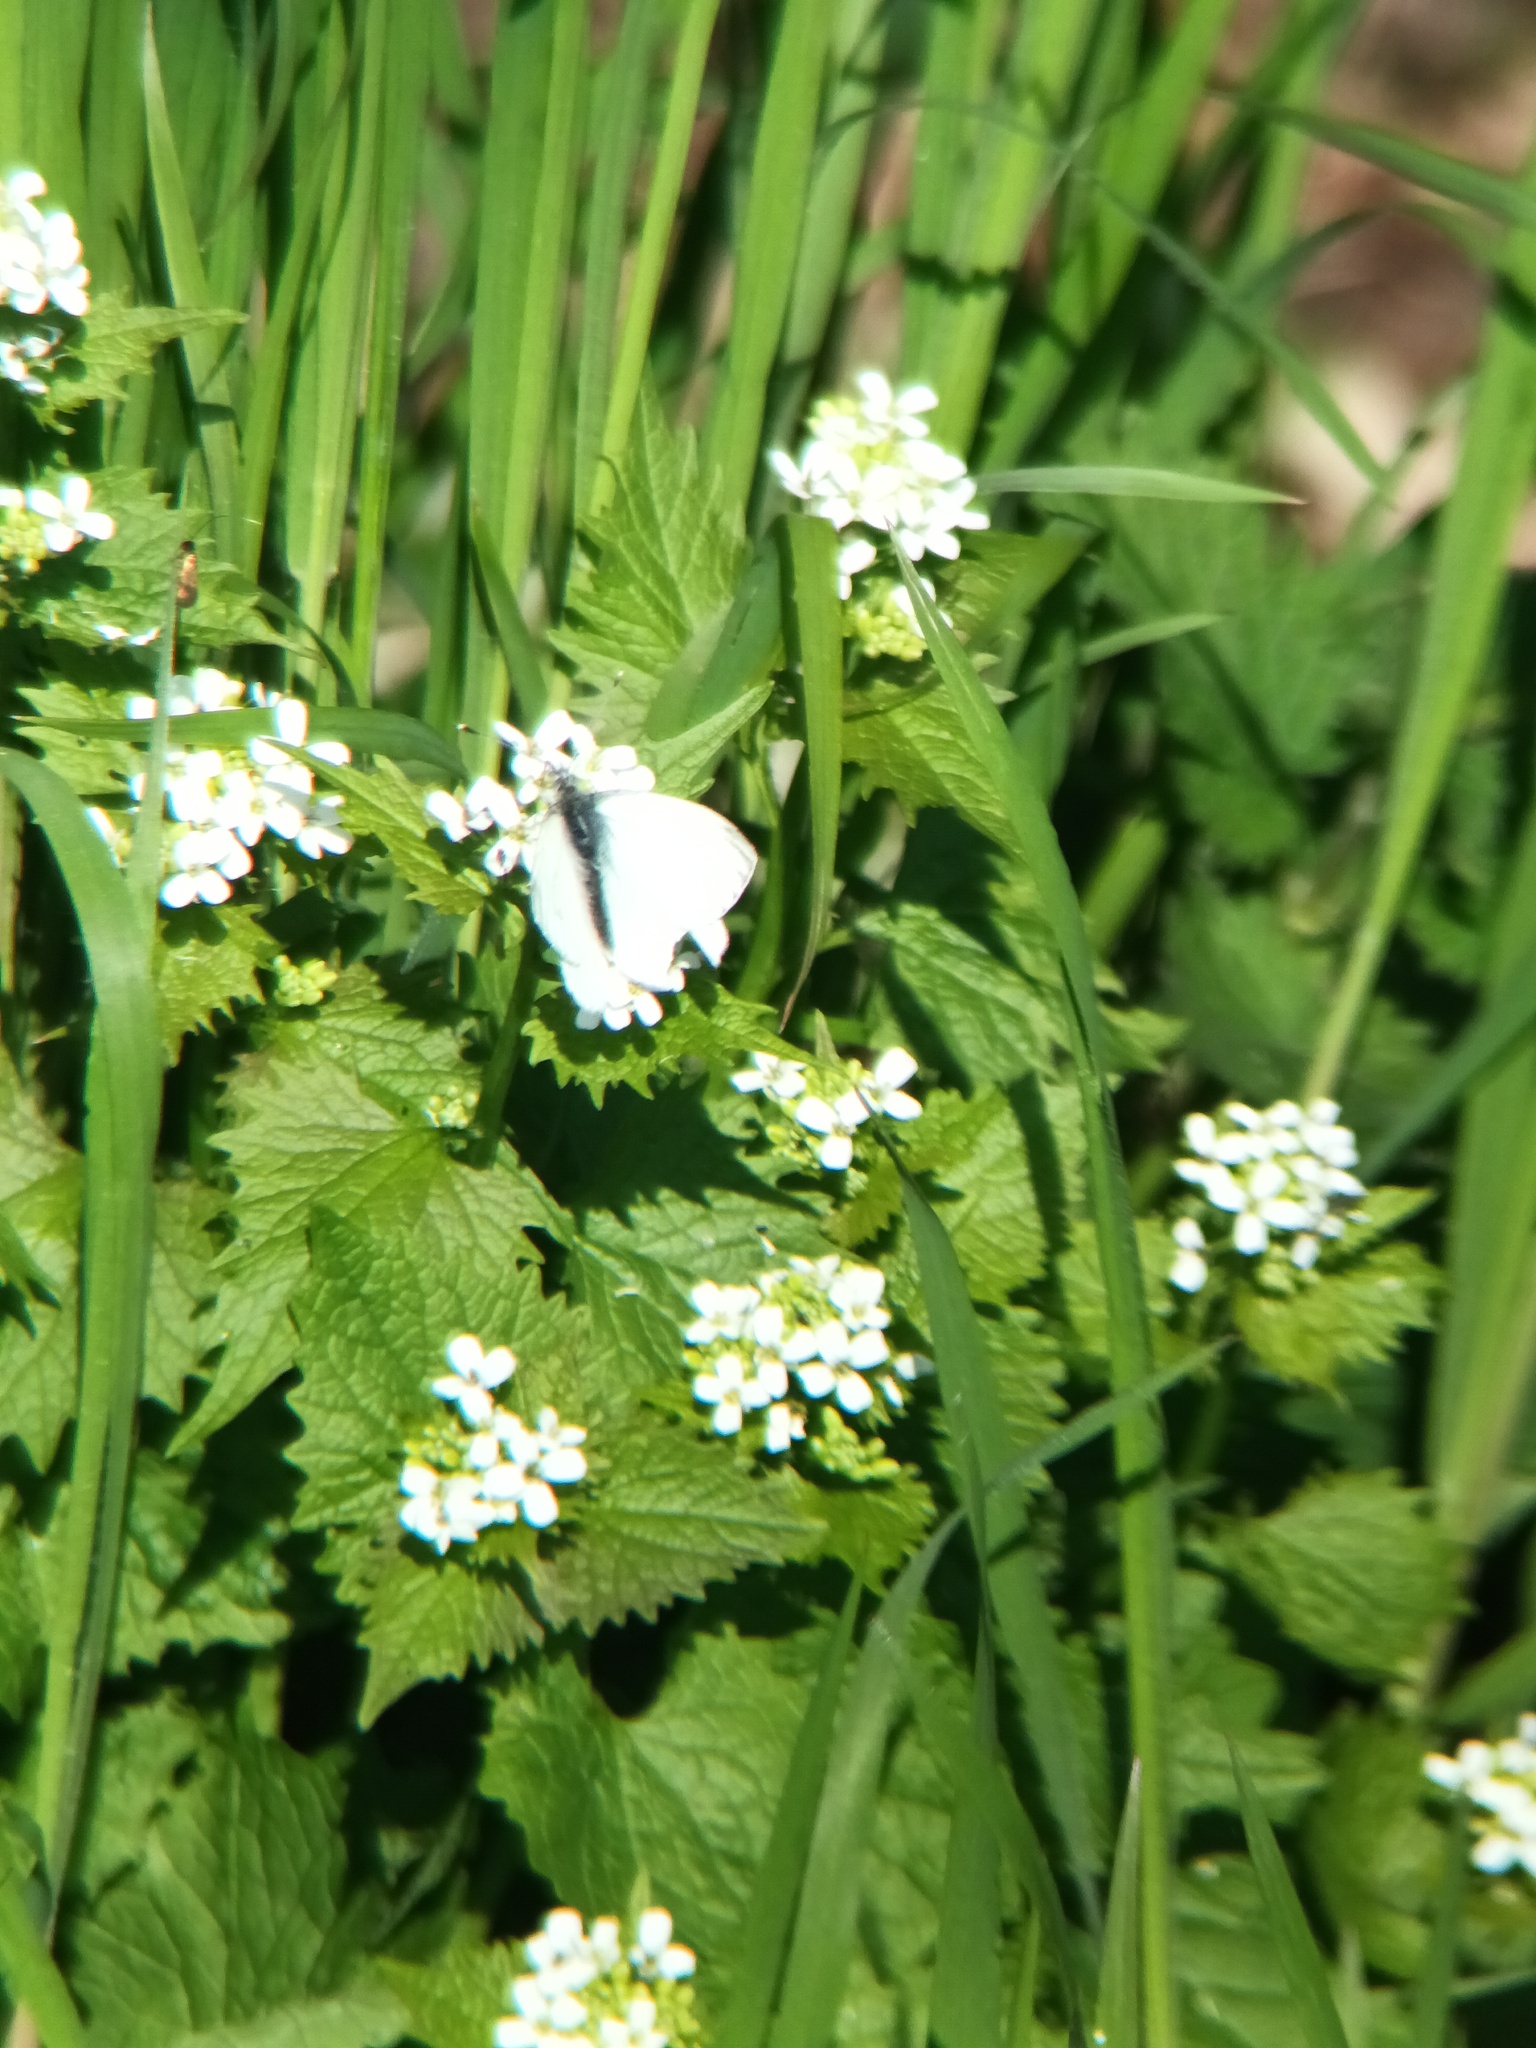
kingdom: Animalia
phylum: Arthropoda
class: Insecta
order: Lepidoptera
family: Pieridae
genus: Pieris
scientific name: Pieris napi
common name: Green-veined white
